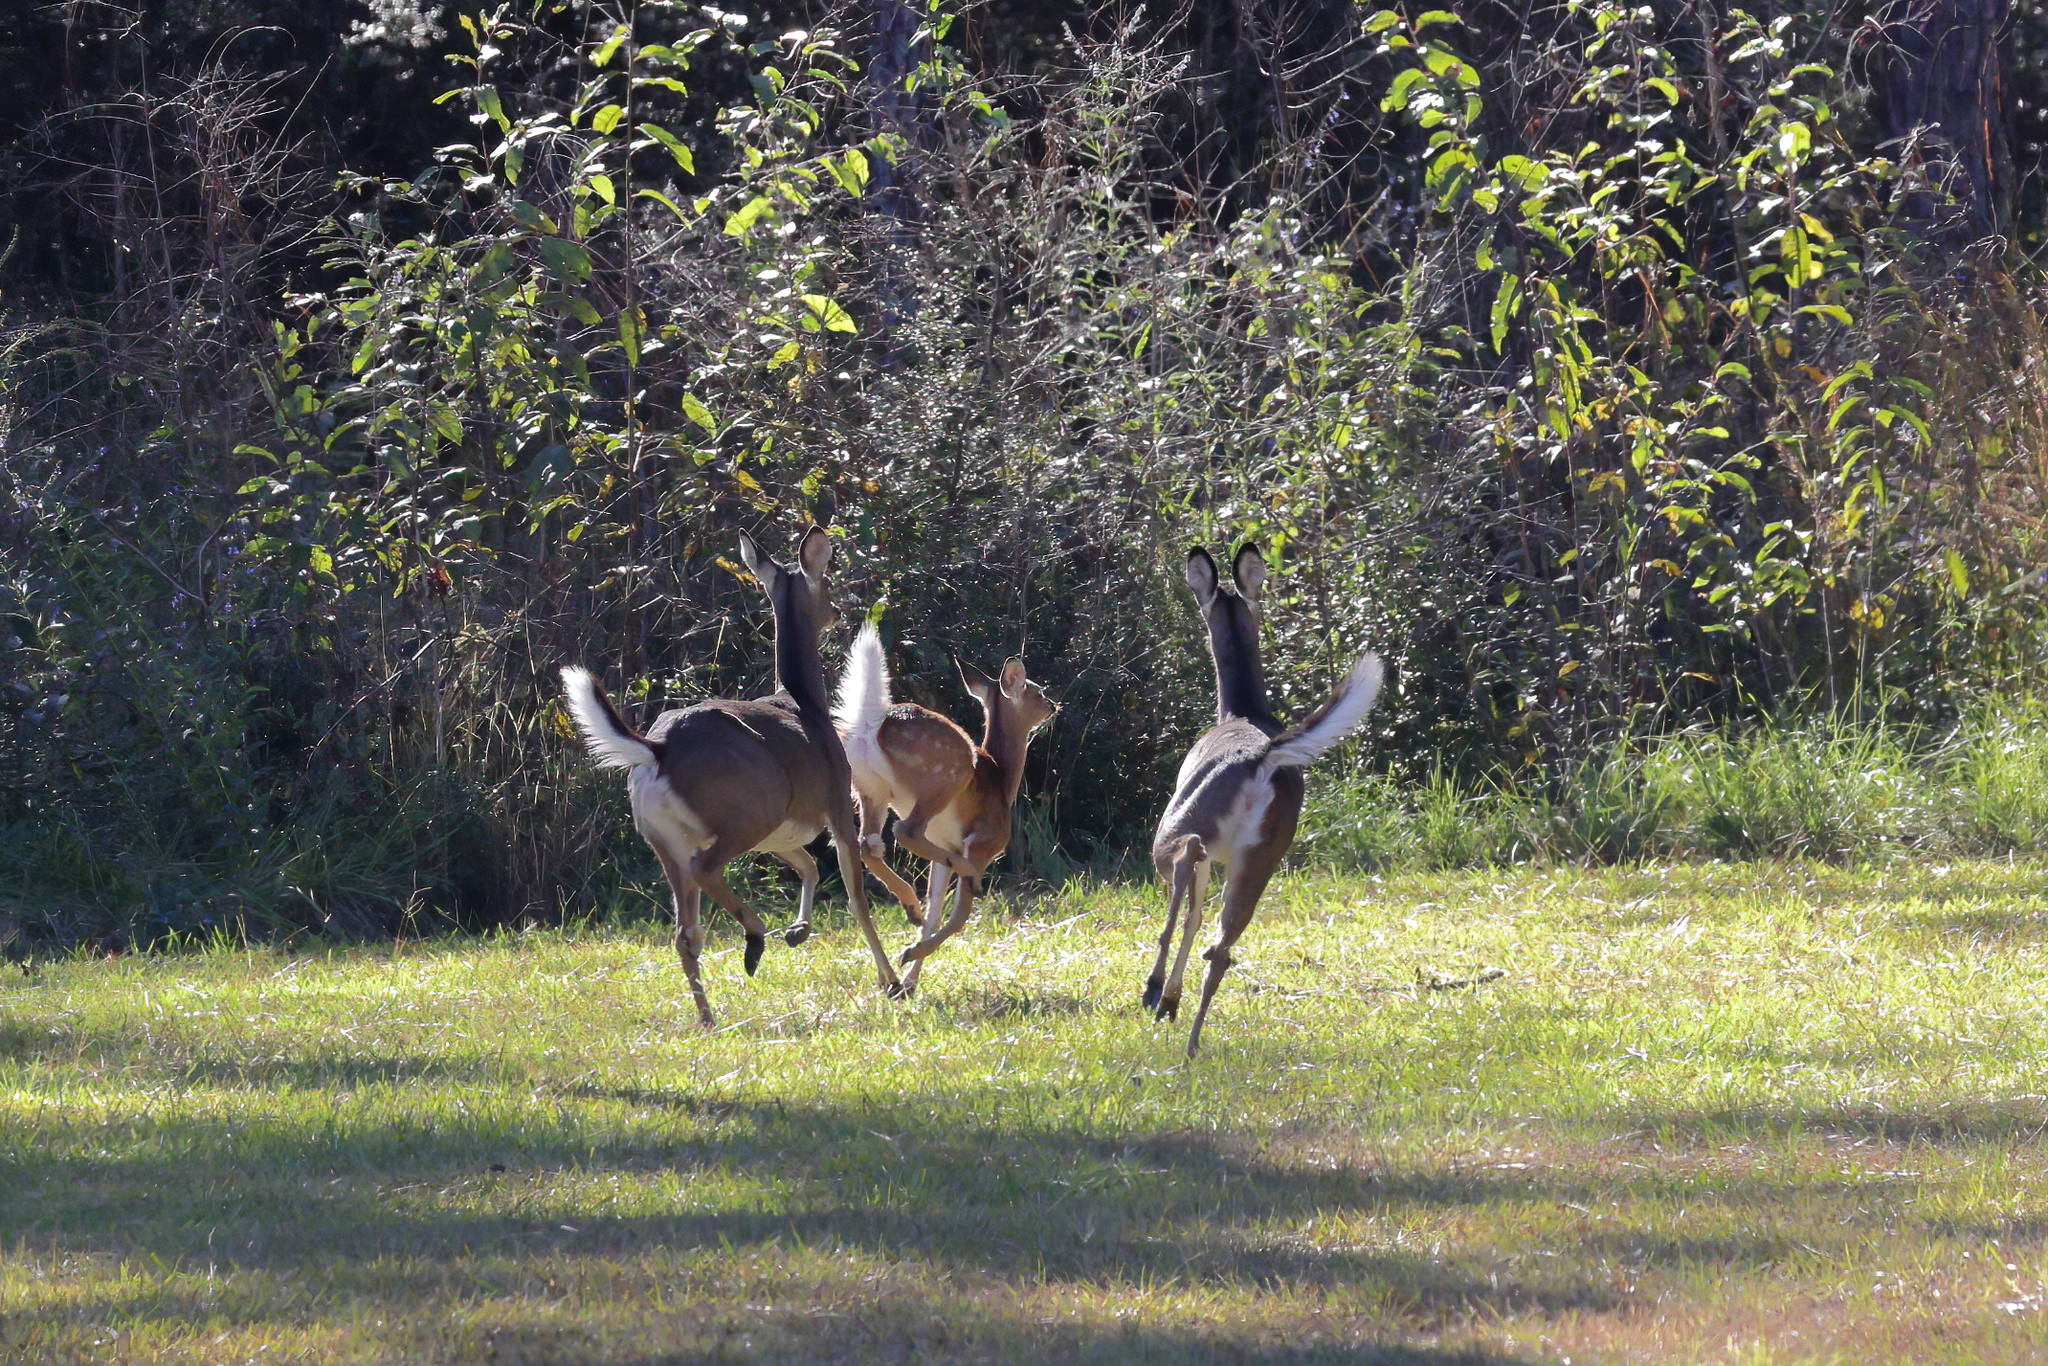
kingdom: Animalia
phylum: Chordata
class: Mammalia
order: Artiodactyla
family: Cervidae
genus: Odocoileus
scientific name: Odocoileus virginianus
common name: White-tailed deer
